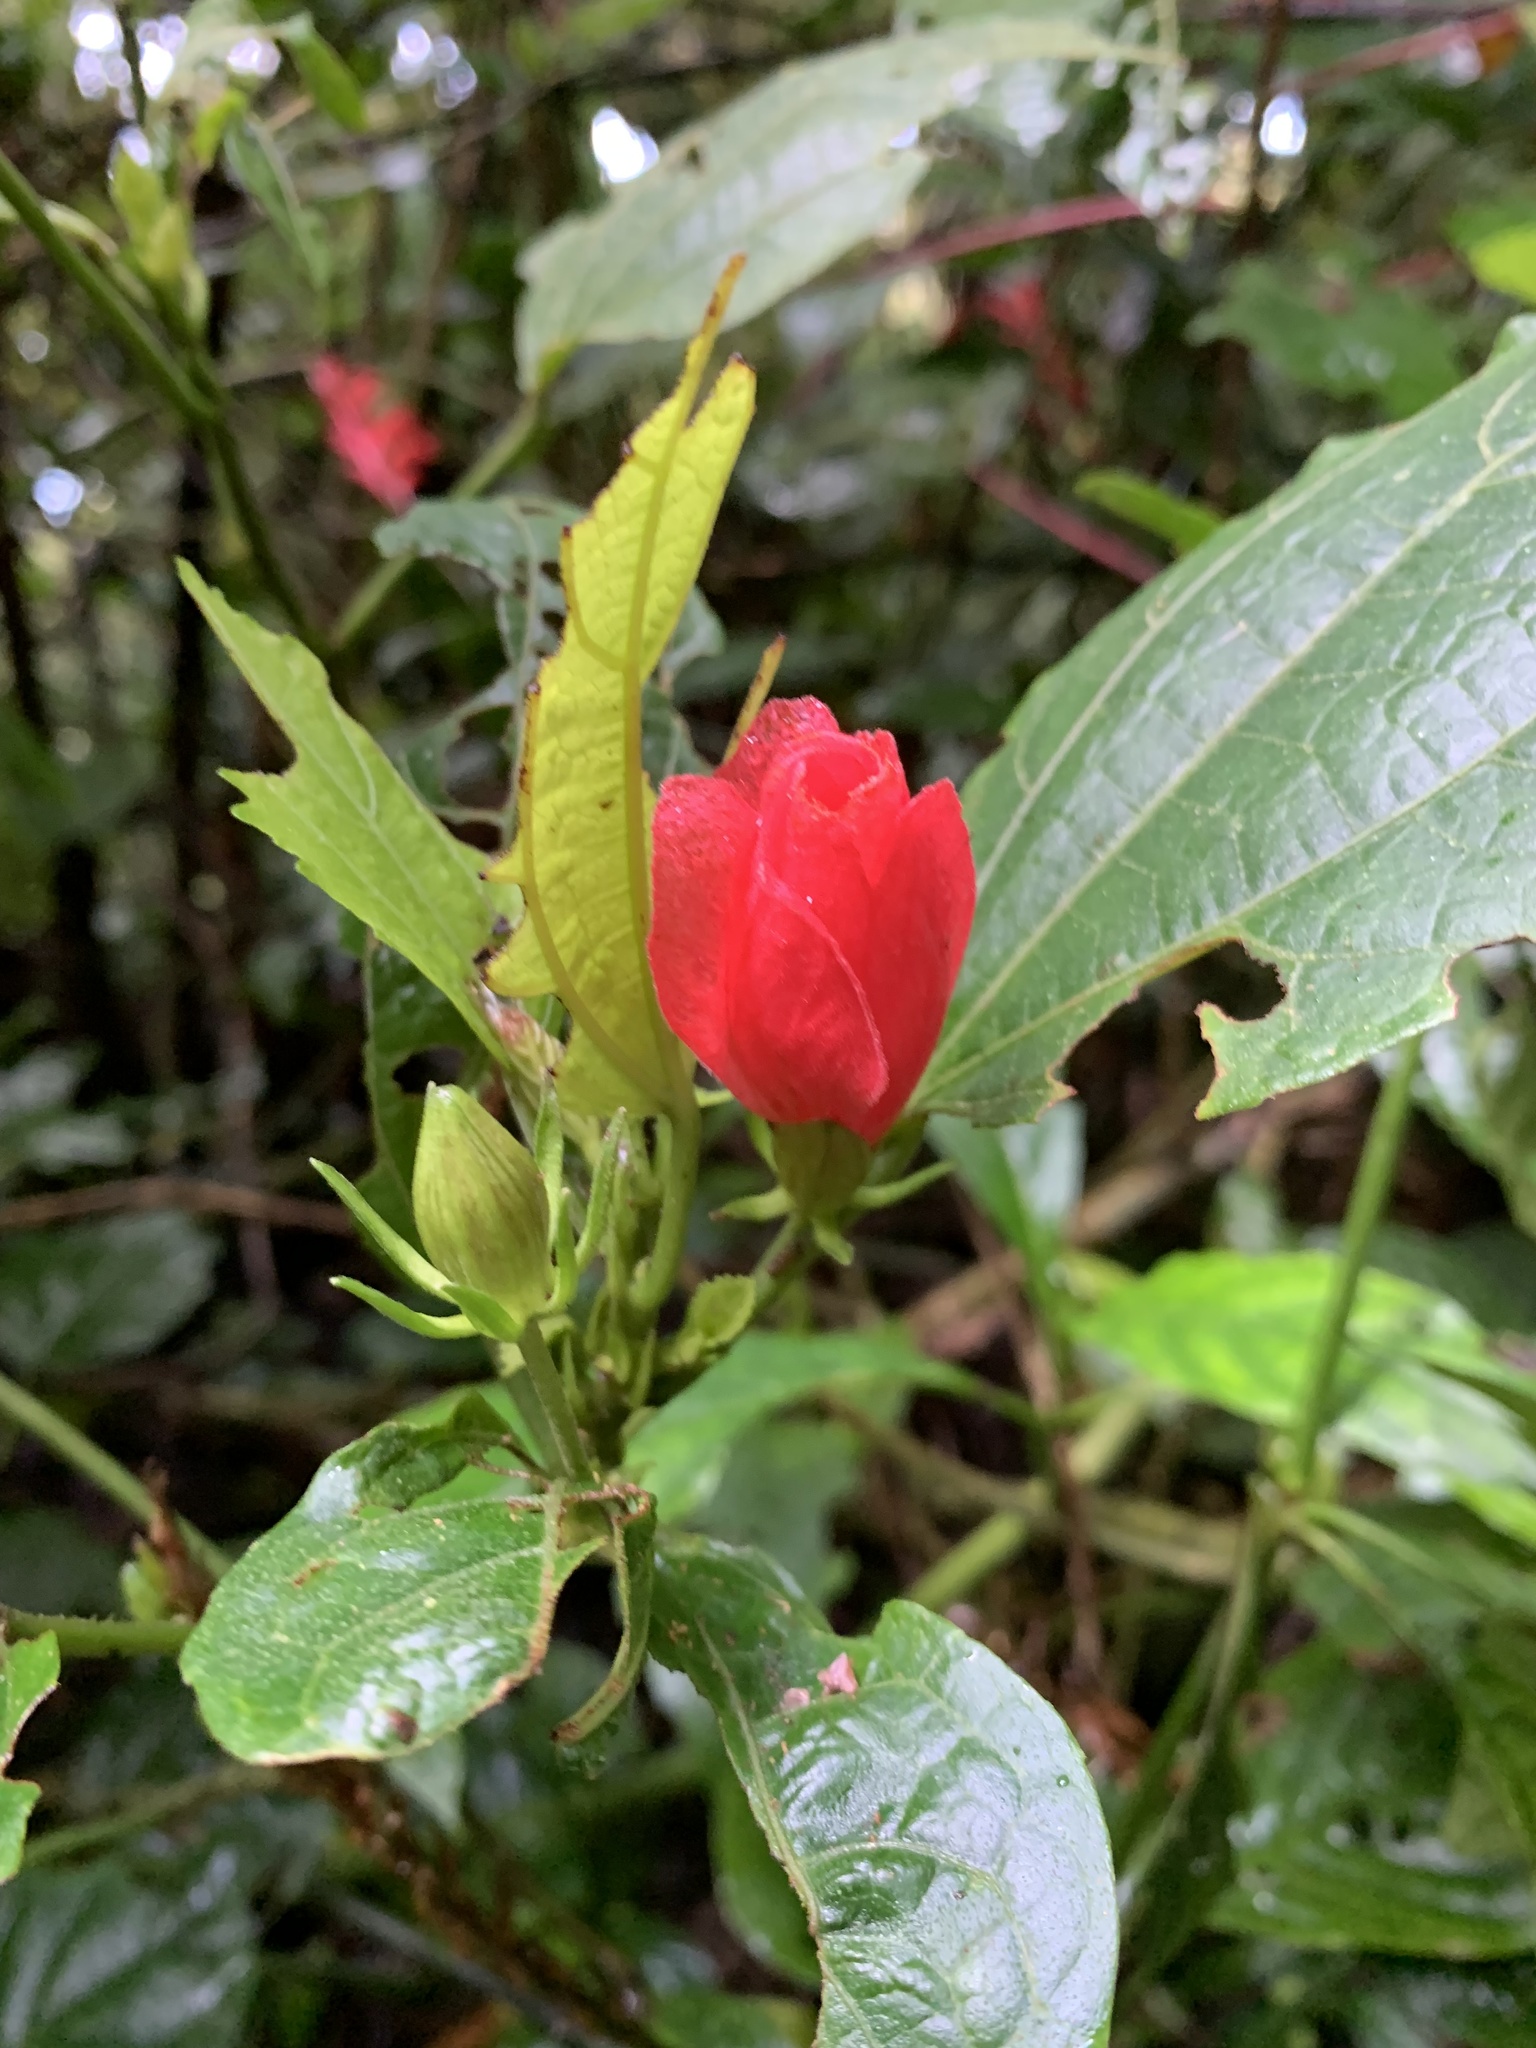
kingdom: Plantae
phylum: Tracheophyta
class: Magnoliopsida
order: Malvales
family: Malvaceae
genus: Malvaviscus
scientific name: Malvaviscus palmanus
